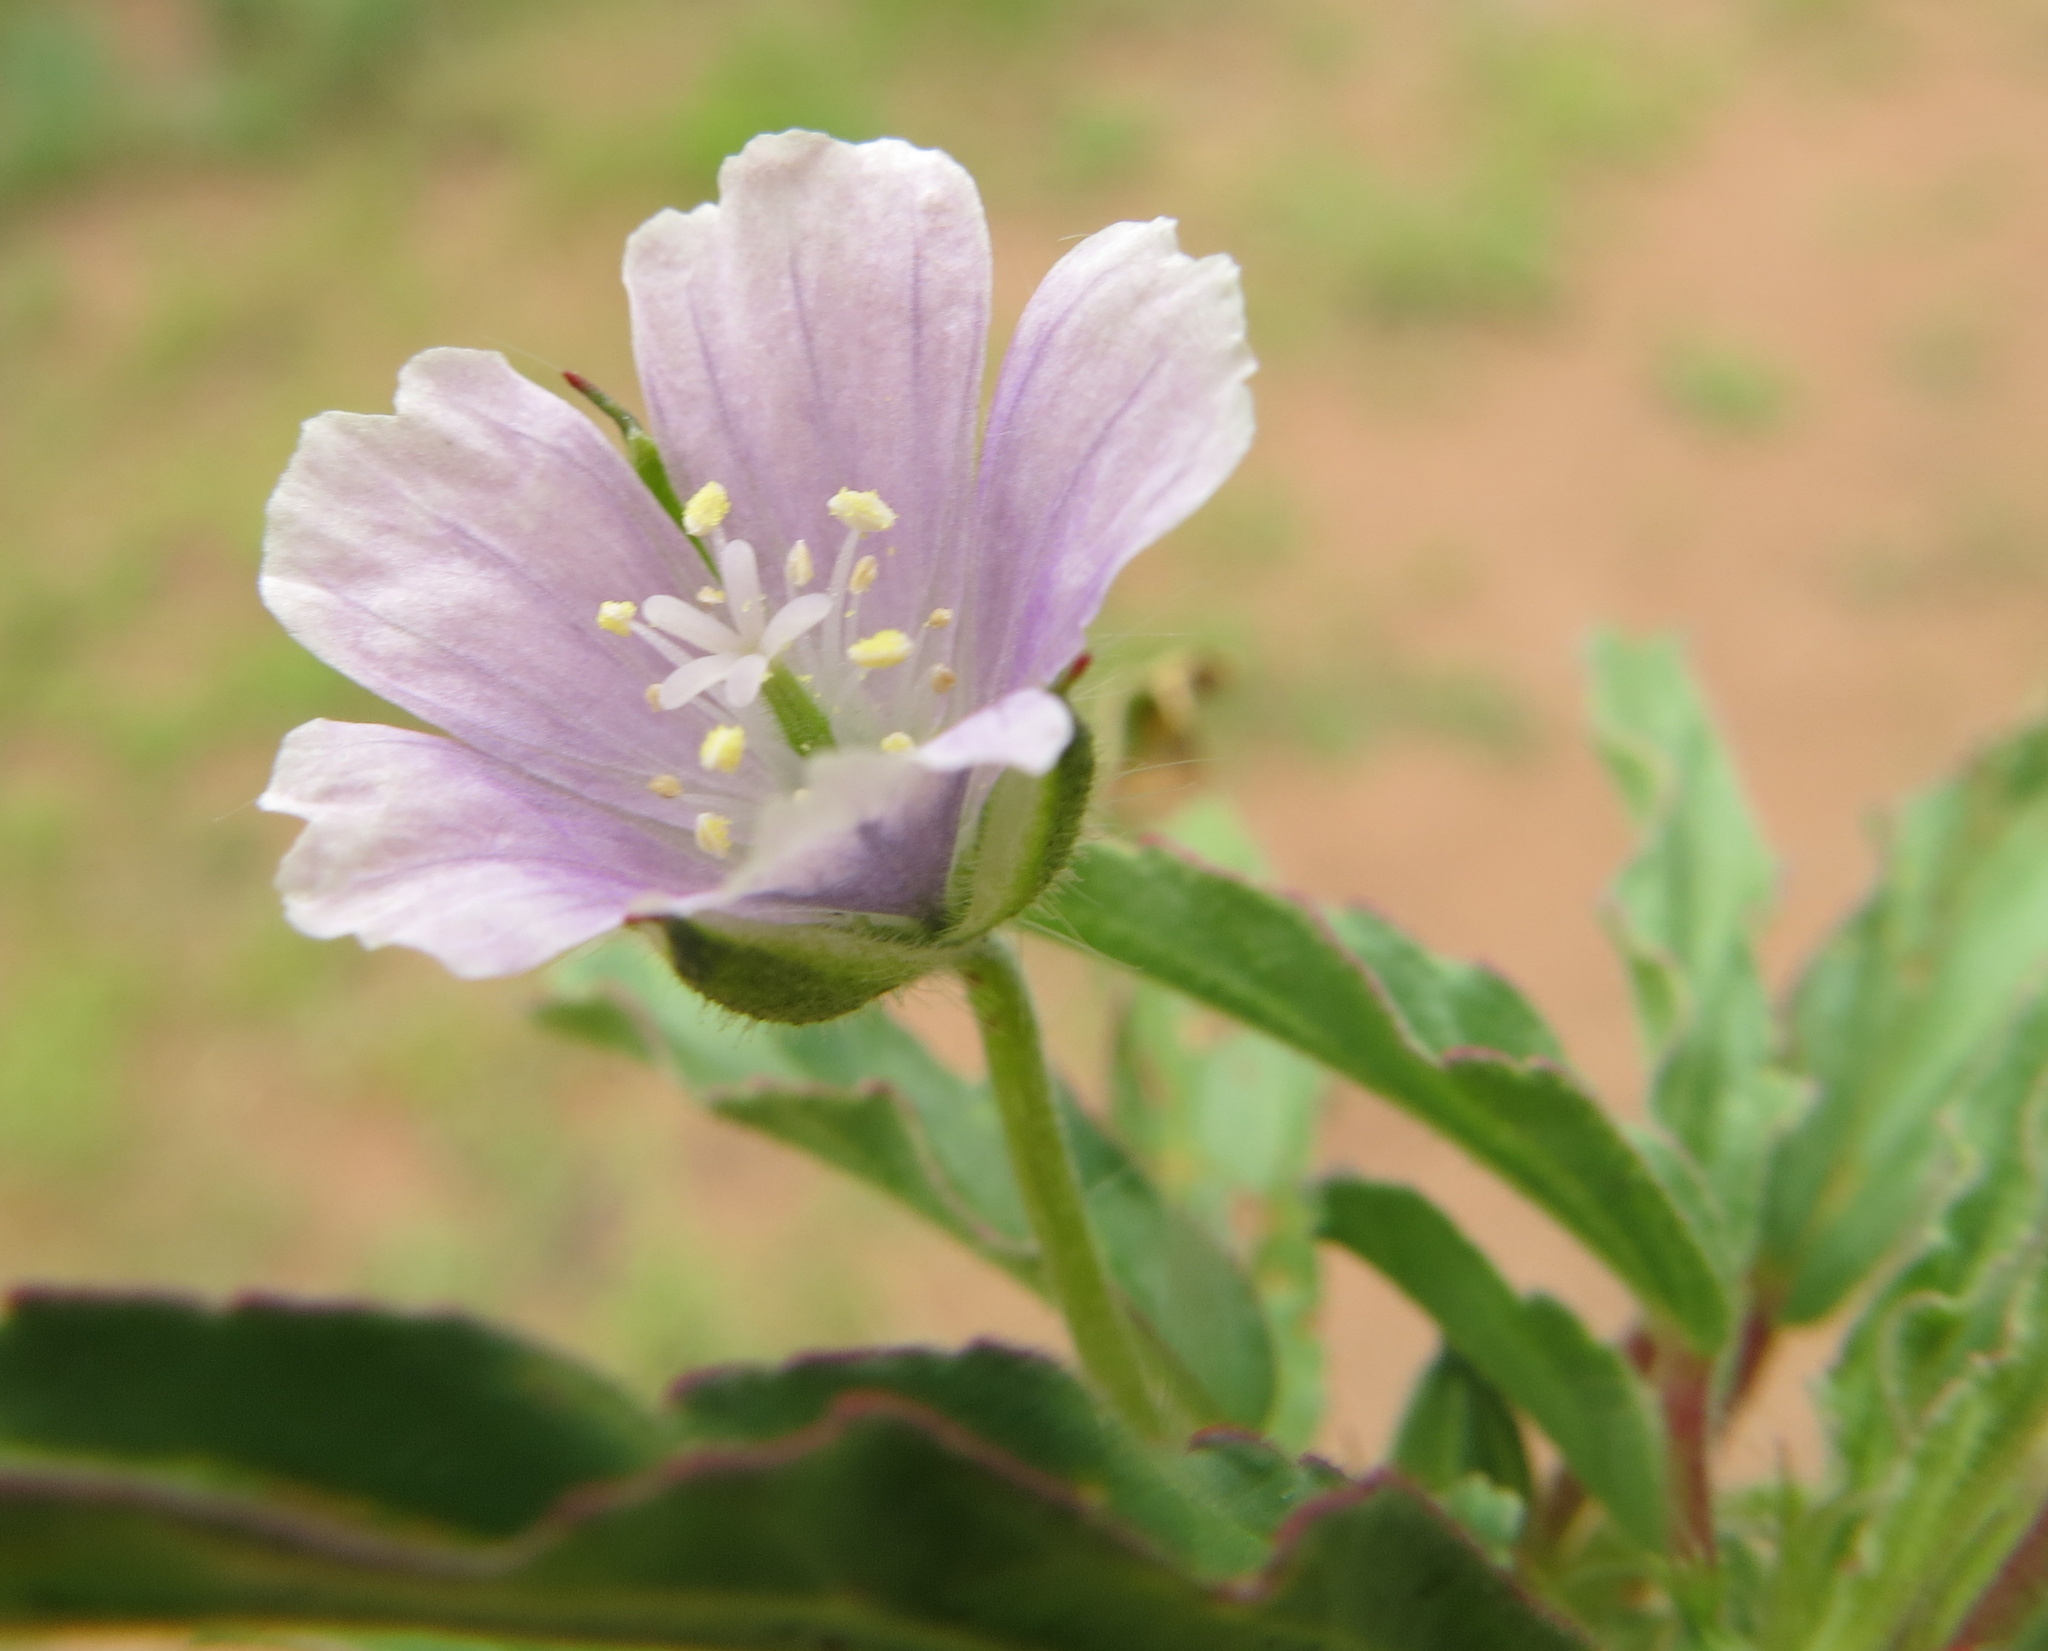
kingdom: Plantae
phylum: Tracheophyta
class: Magnoliopsida
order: Geraniales
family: Geraniaceae
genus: Monsonia
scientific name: Monsonia angustifolia
